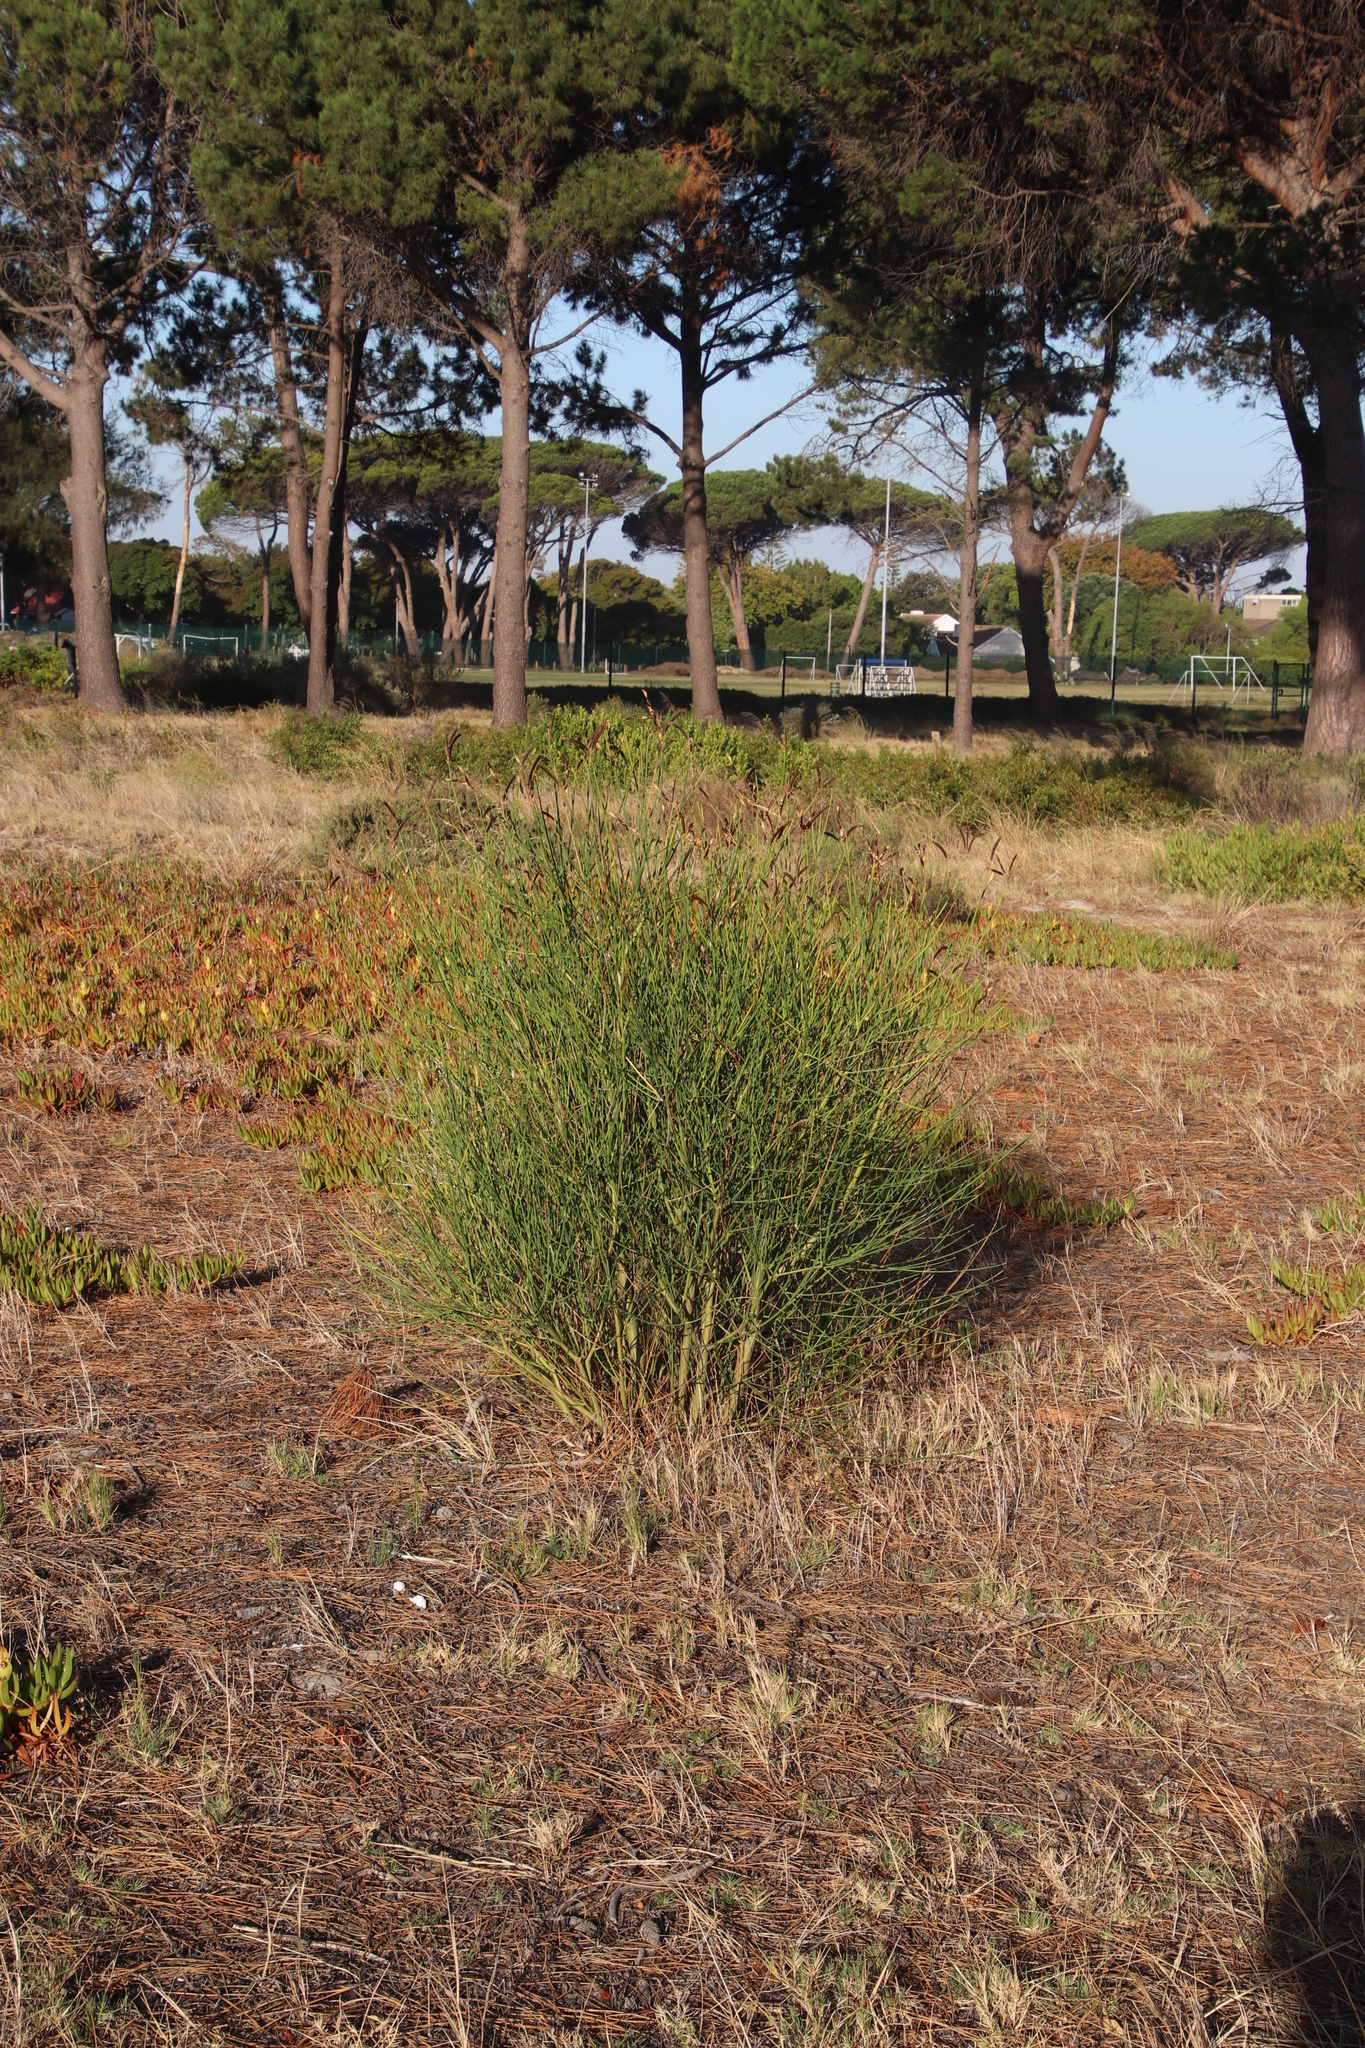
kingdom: Plantae
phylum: Tracheophyta
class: Magnoliopsida
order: Fabales
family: Fabaceae
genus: Spartium
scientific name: Spartium junceum
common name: Spanish broom
